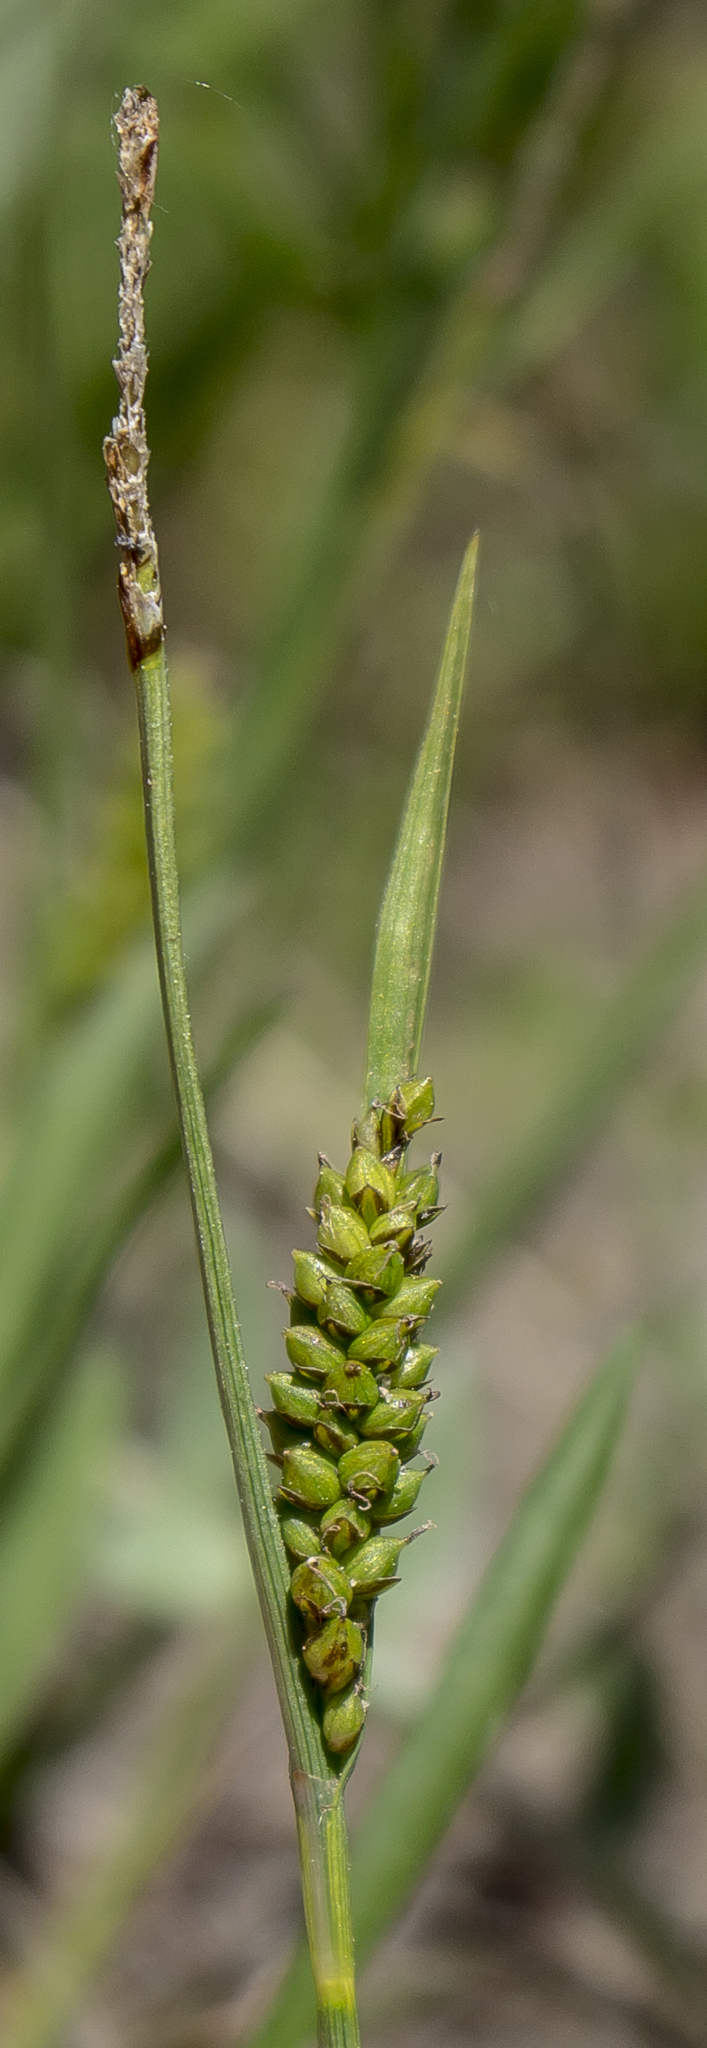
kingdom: Plantae
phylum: Tracheophyta
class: Liliopsida
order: Poales
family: Cyperaceae
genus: Carex
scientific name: Carex crawei
